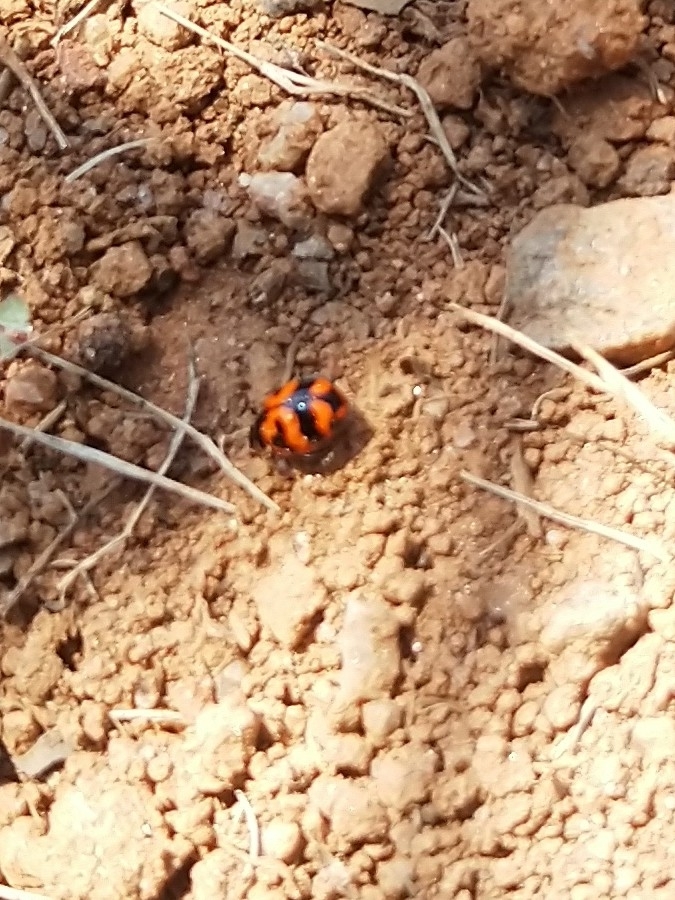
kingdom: Animalia
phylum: Arthropoda
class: Insecta
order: Coleoptera
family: Coccinellidae
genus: Coccinella
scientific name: Coccinella transversalis
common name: Transverse lady beetle
